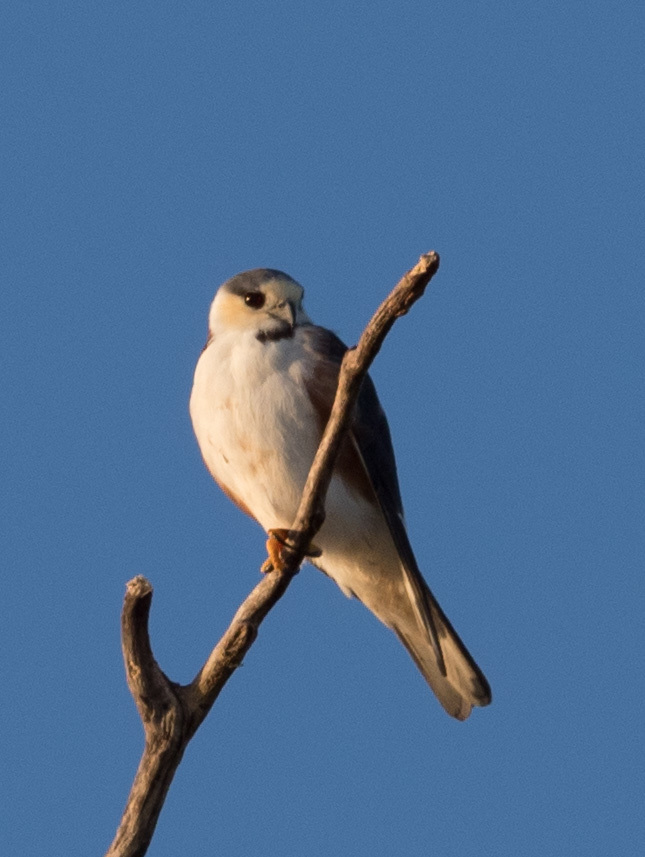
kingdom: Animalia
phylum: Chordata
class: Aves
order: Accipitriformes
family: Accipitridae
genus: Gampsonyx
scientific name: Gampsonyx swainsonii
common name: Pearl kite
